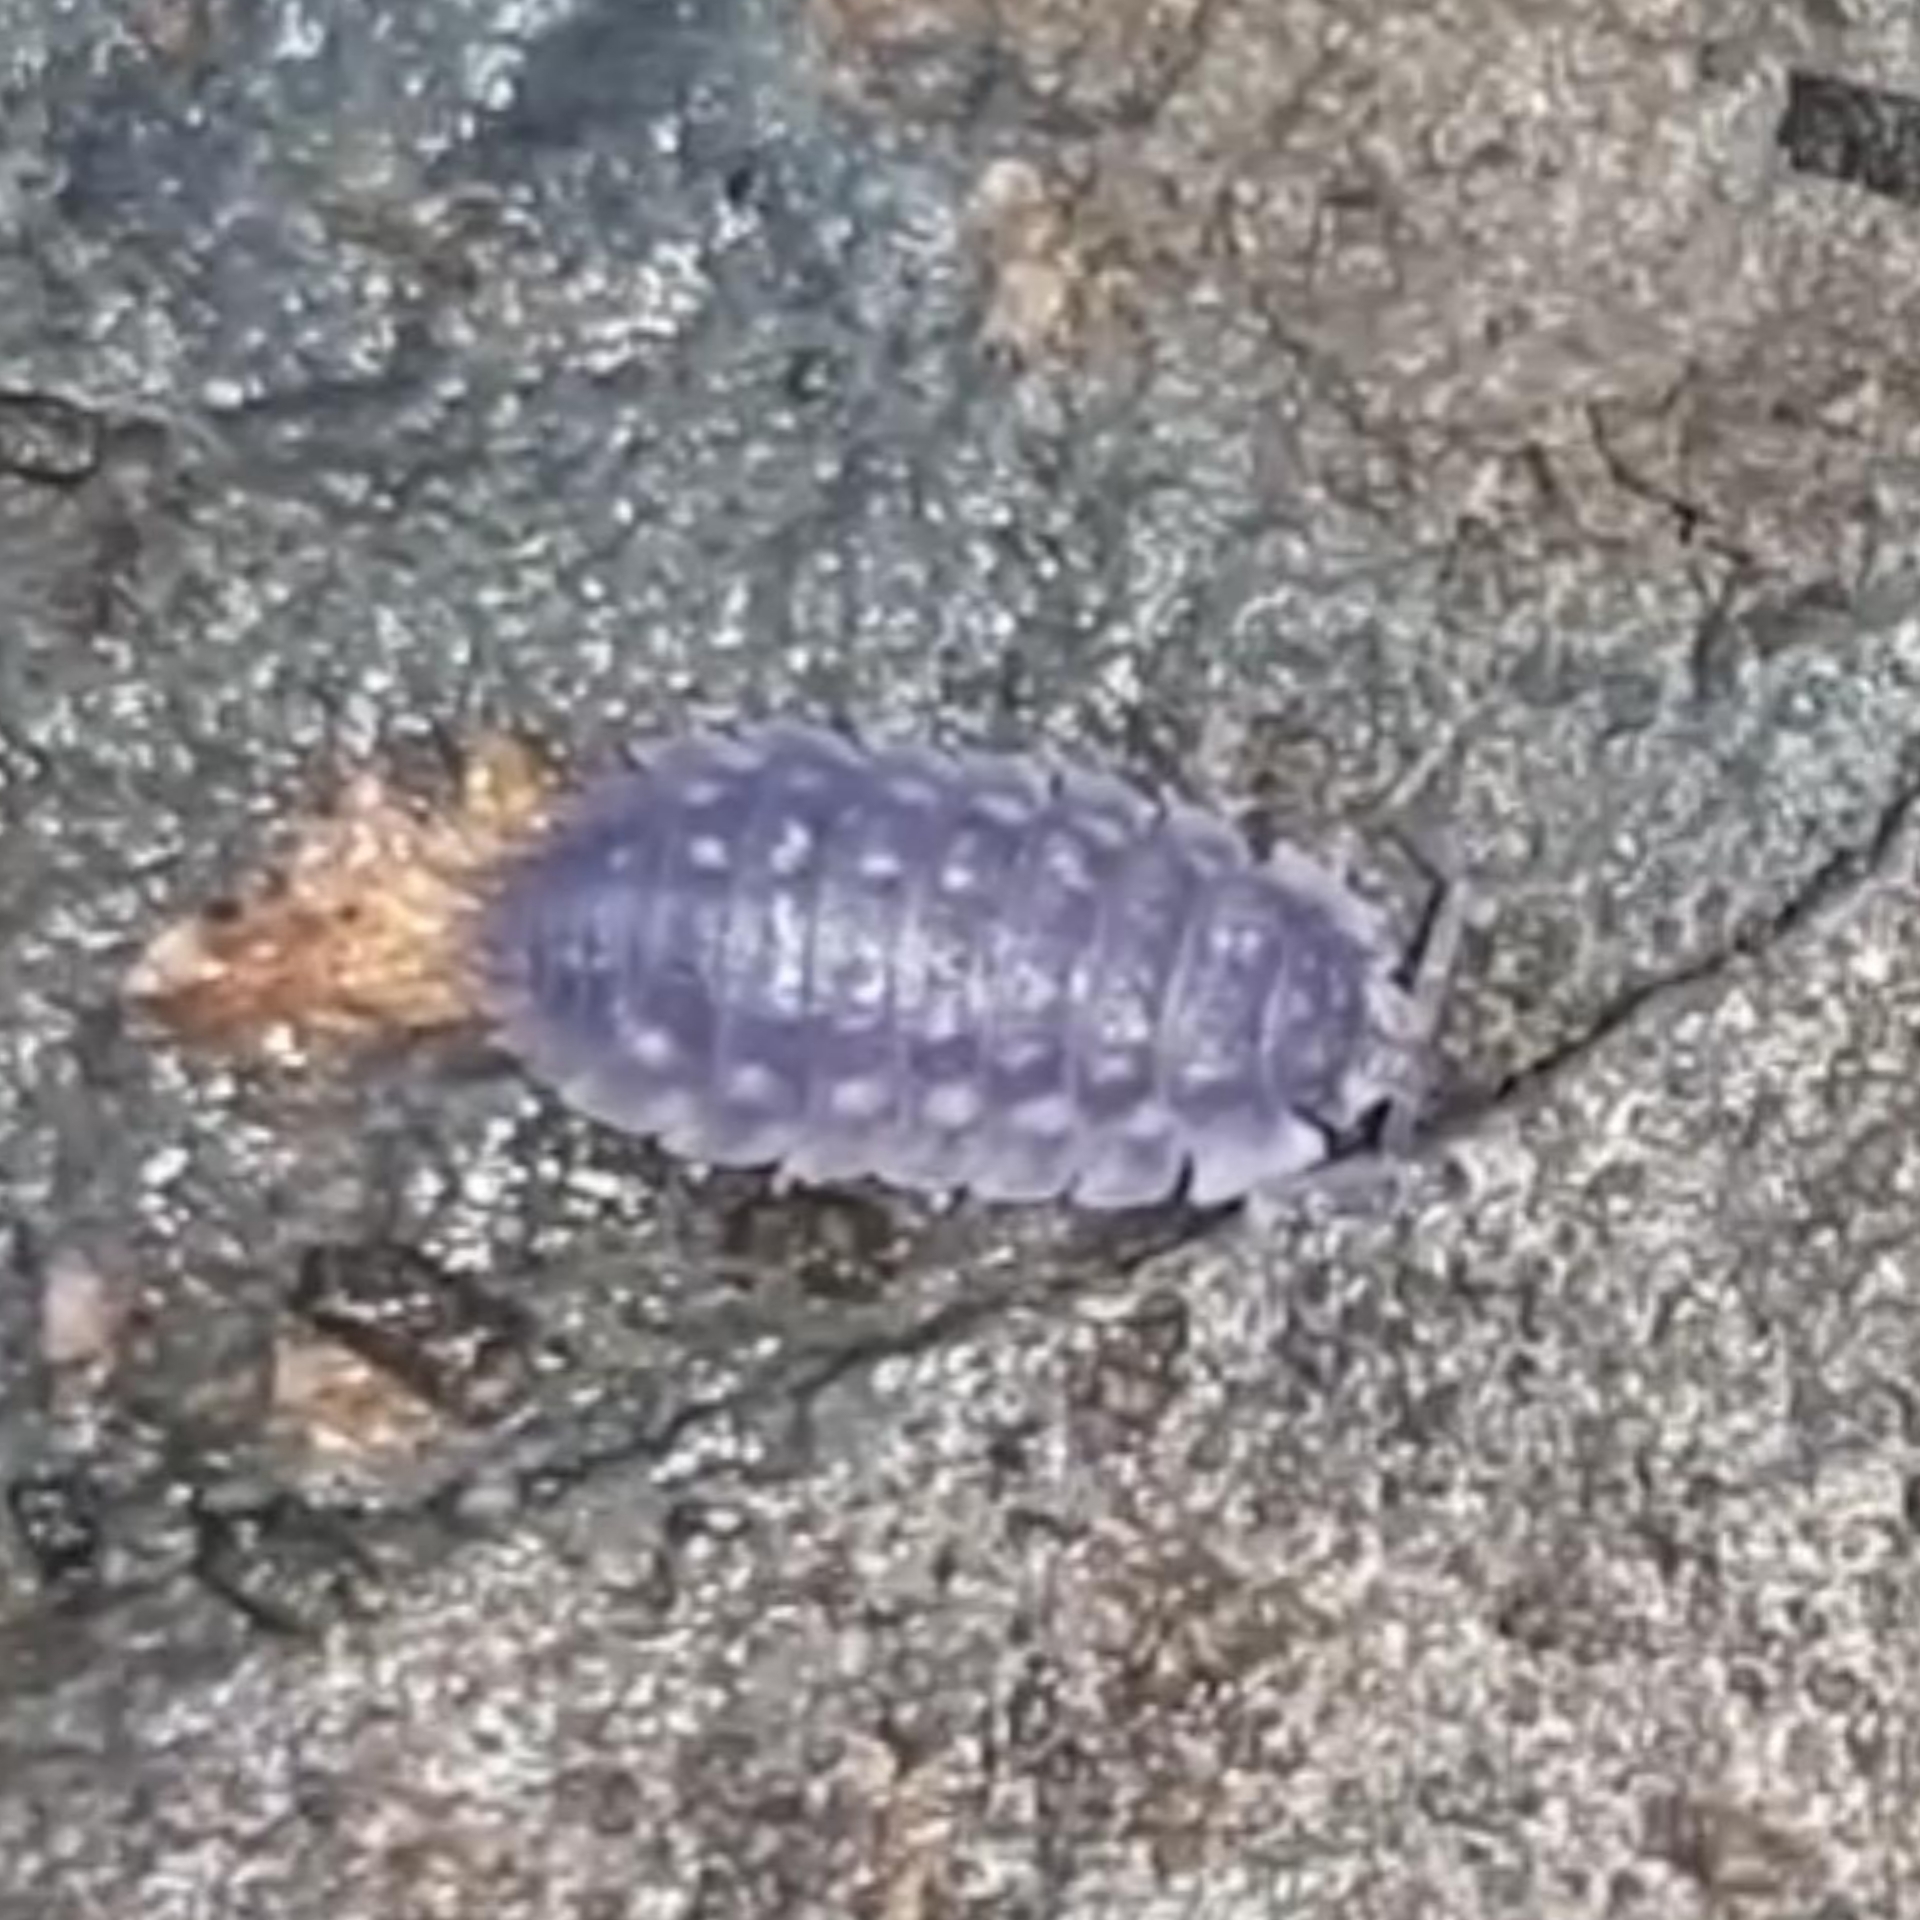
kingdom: Animalia
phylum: Arthropoda
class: Malacostraca
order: Isopoda
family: Oniscidae
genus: Oniscus
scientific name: Oniscus asellus
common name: Common shiny woodlouse
